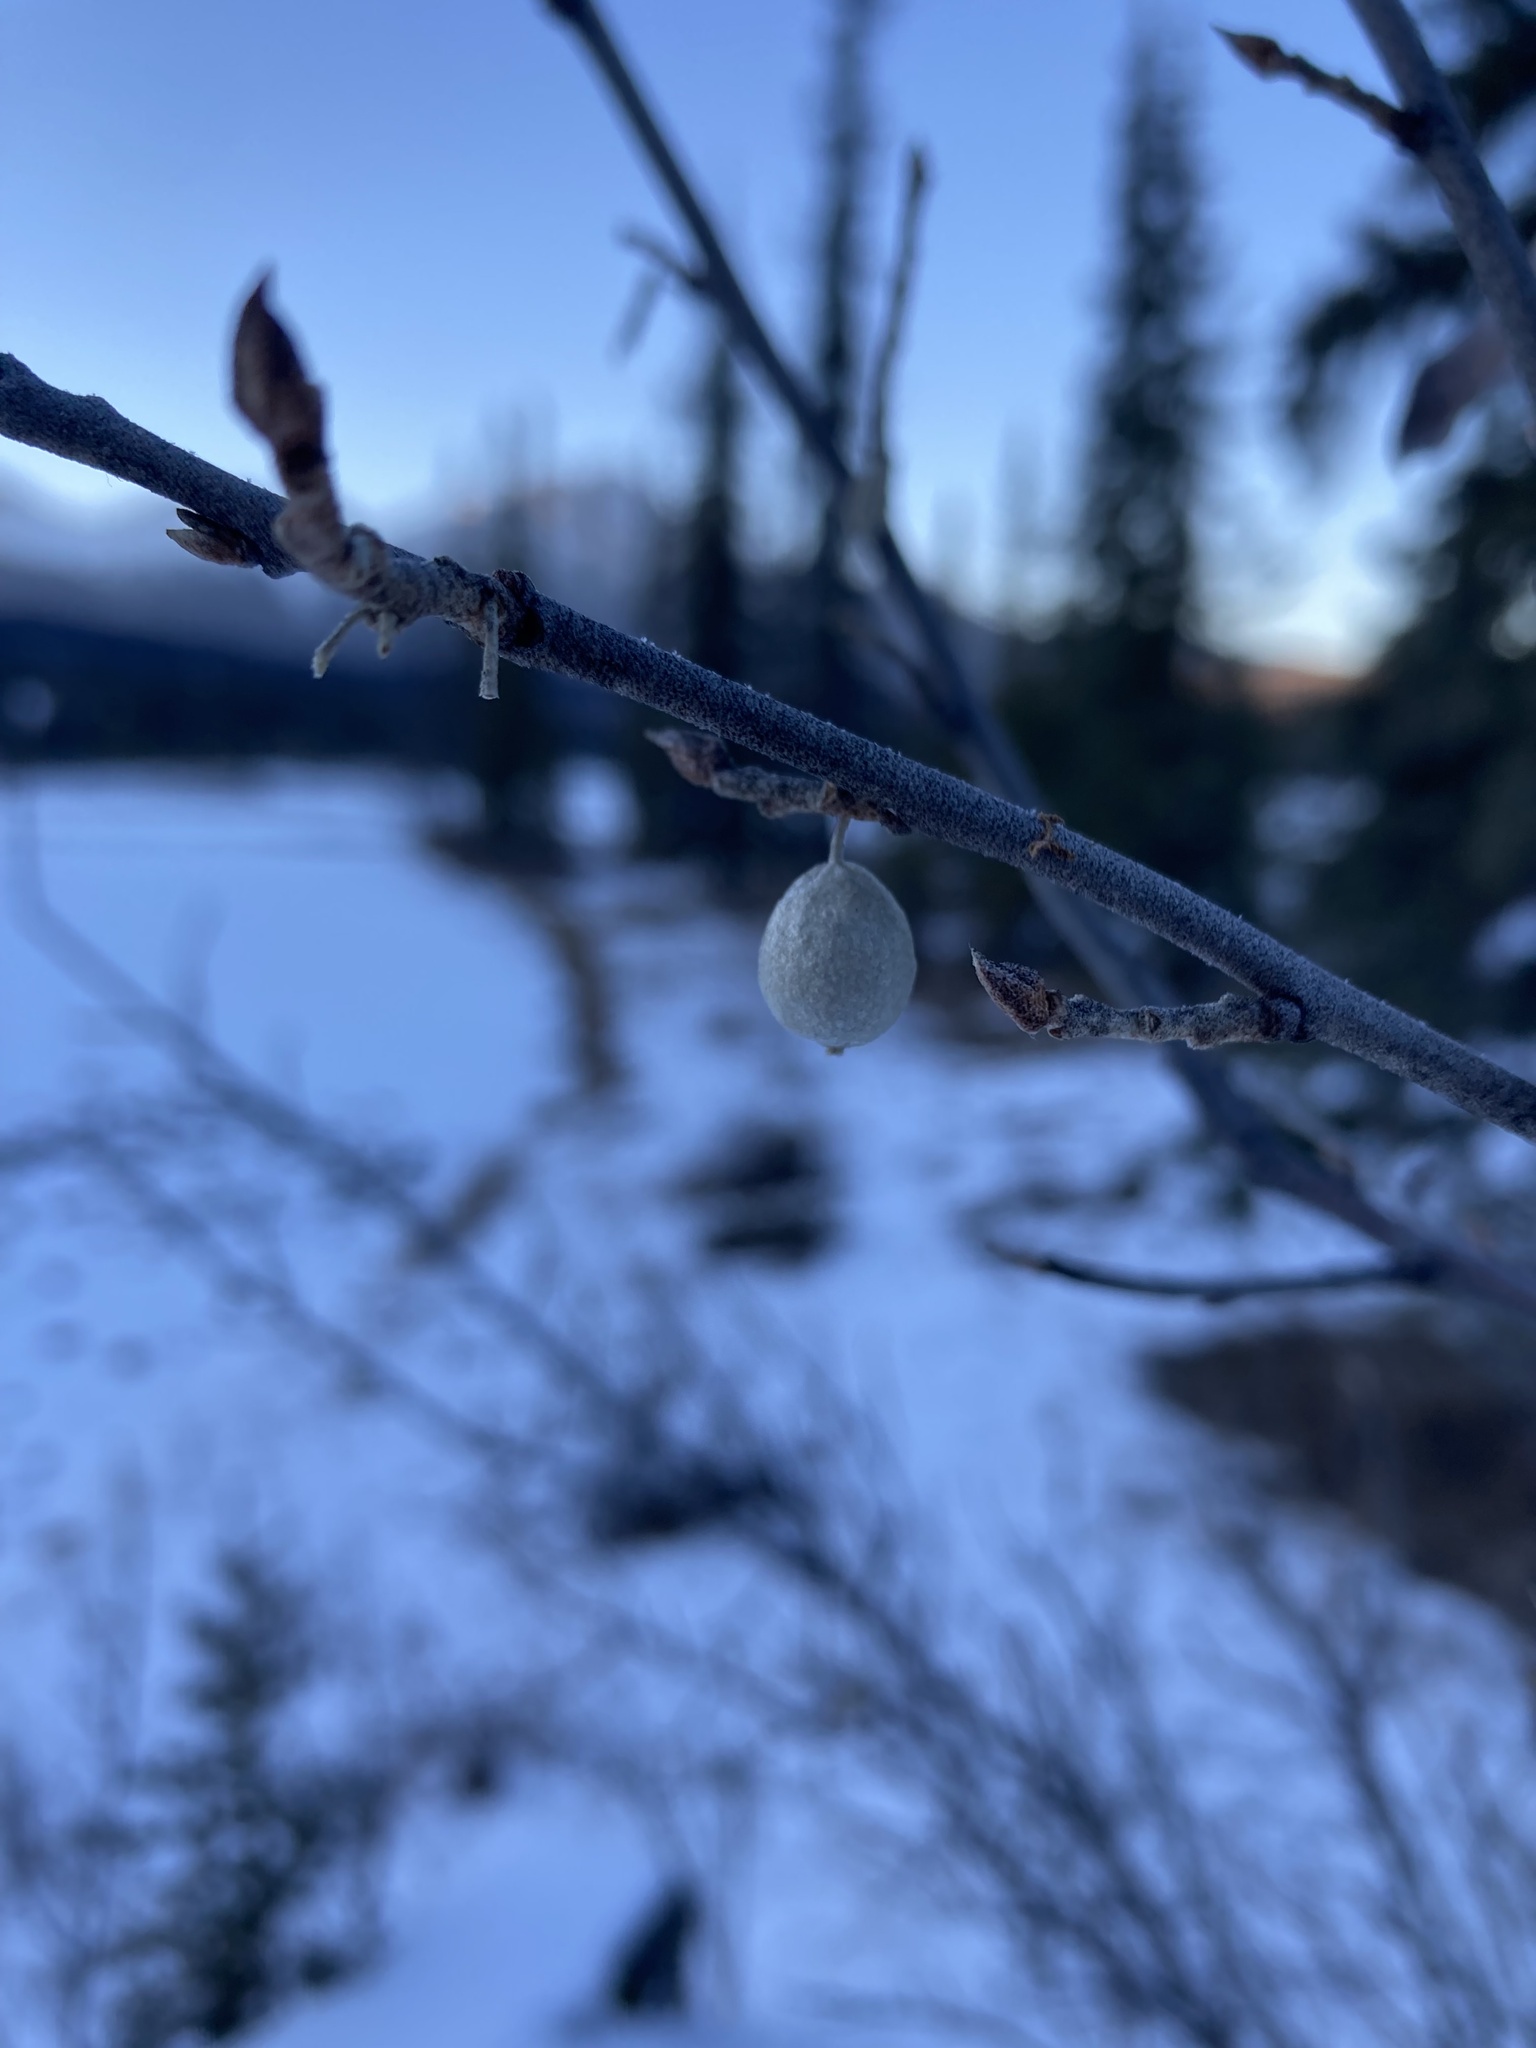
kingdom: Plantae
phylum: Tracheophyta
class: Magnoliopsida
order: Rosales
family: Elaeagnaceae
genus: Elaeagnus
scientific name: Elaeagnus commutata
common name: Silverberry
